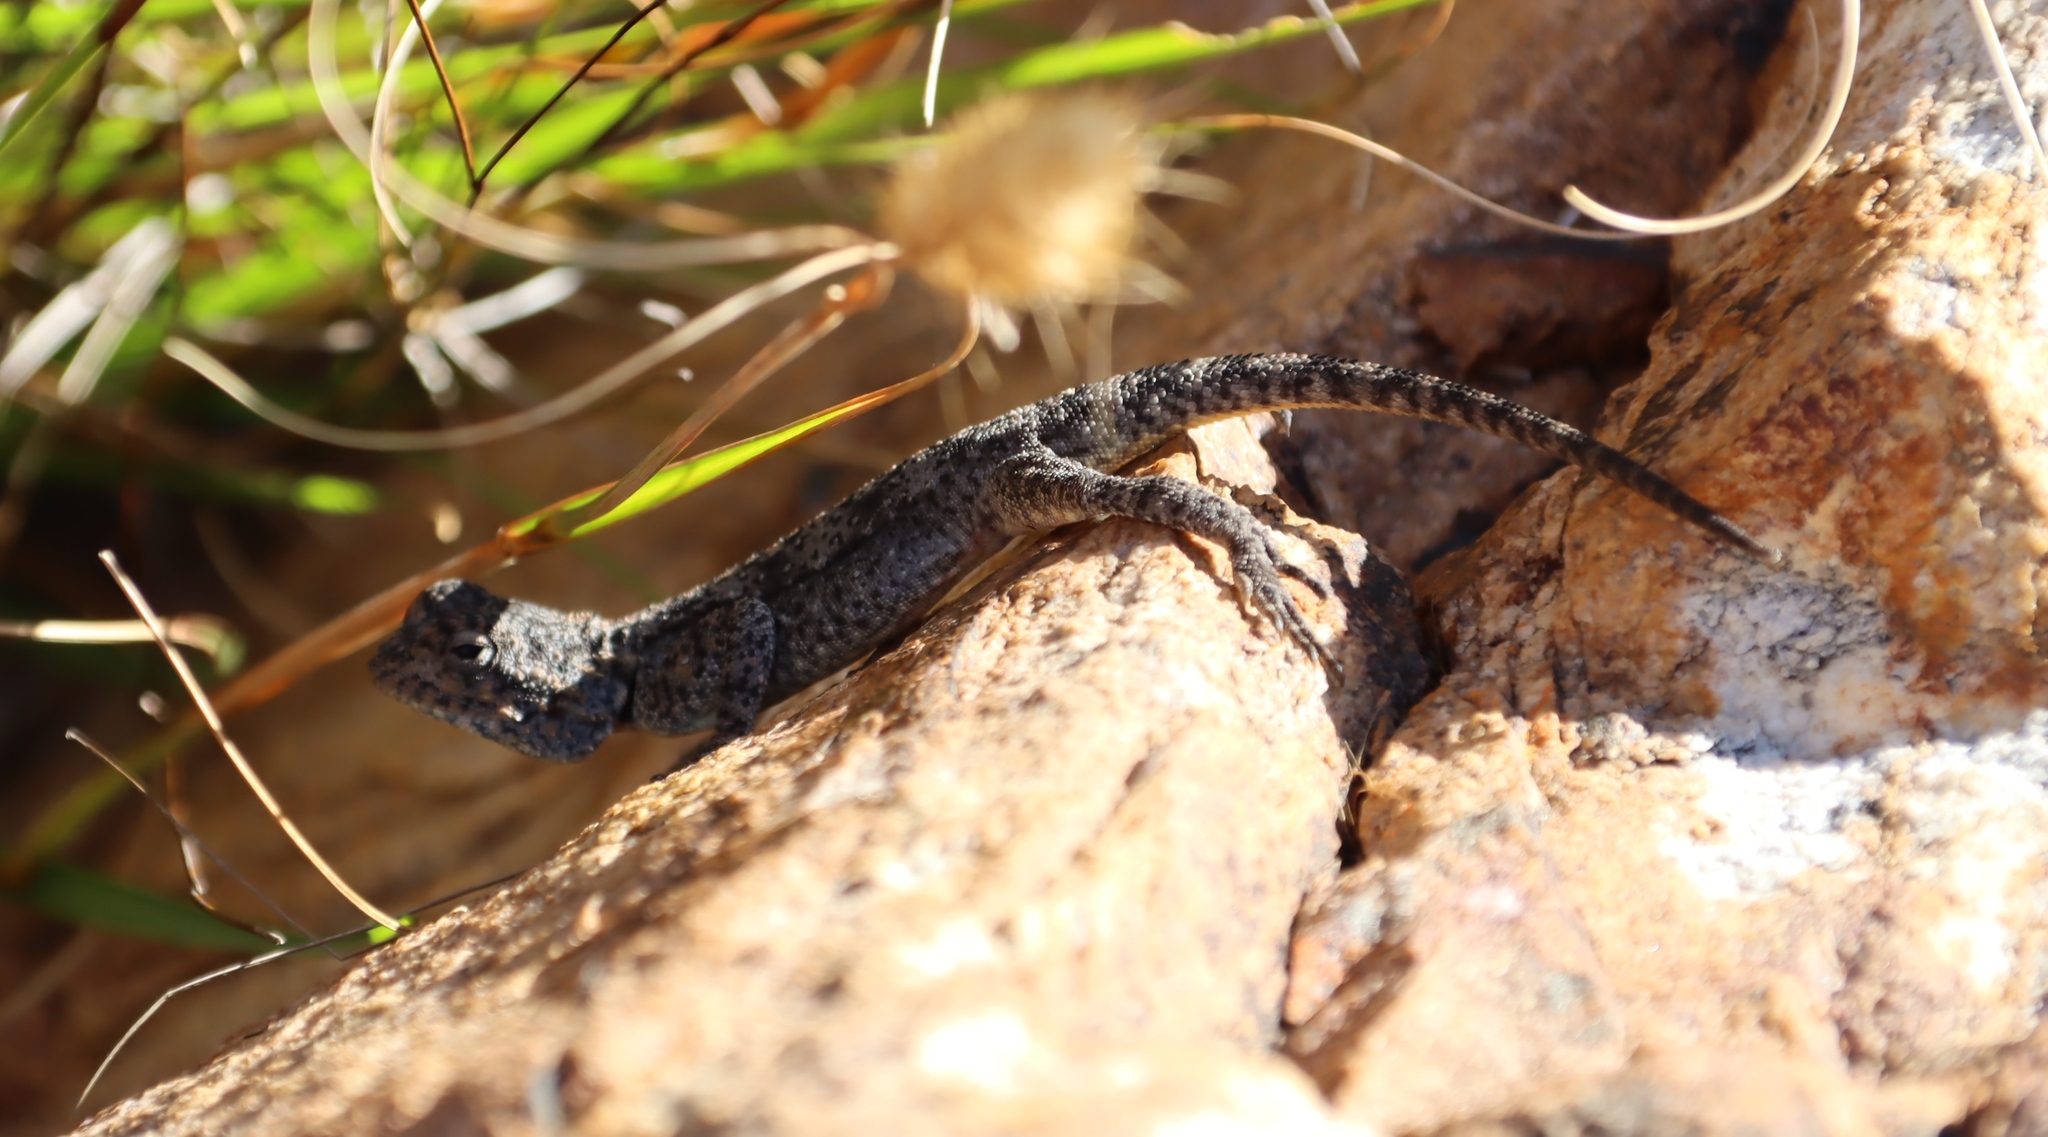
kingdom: Animalia
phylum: Chordata
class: Squamata
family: Agamidae
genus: Agama
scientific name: Agama atra
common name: Southern african rock agama
